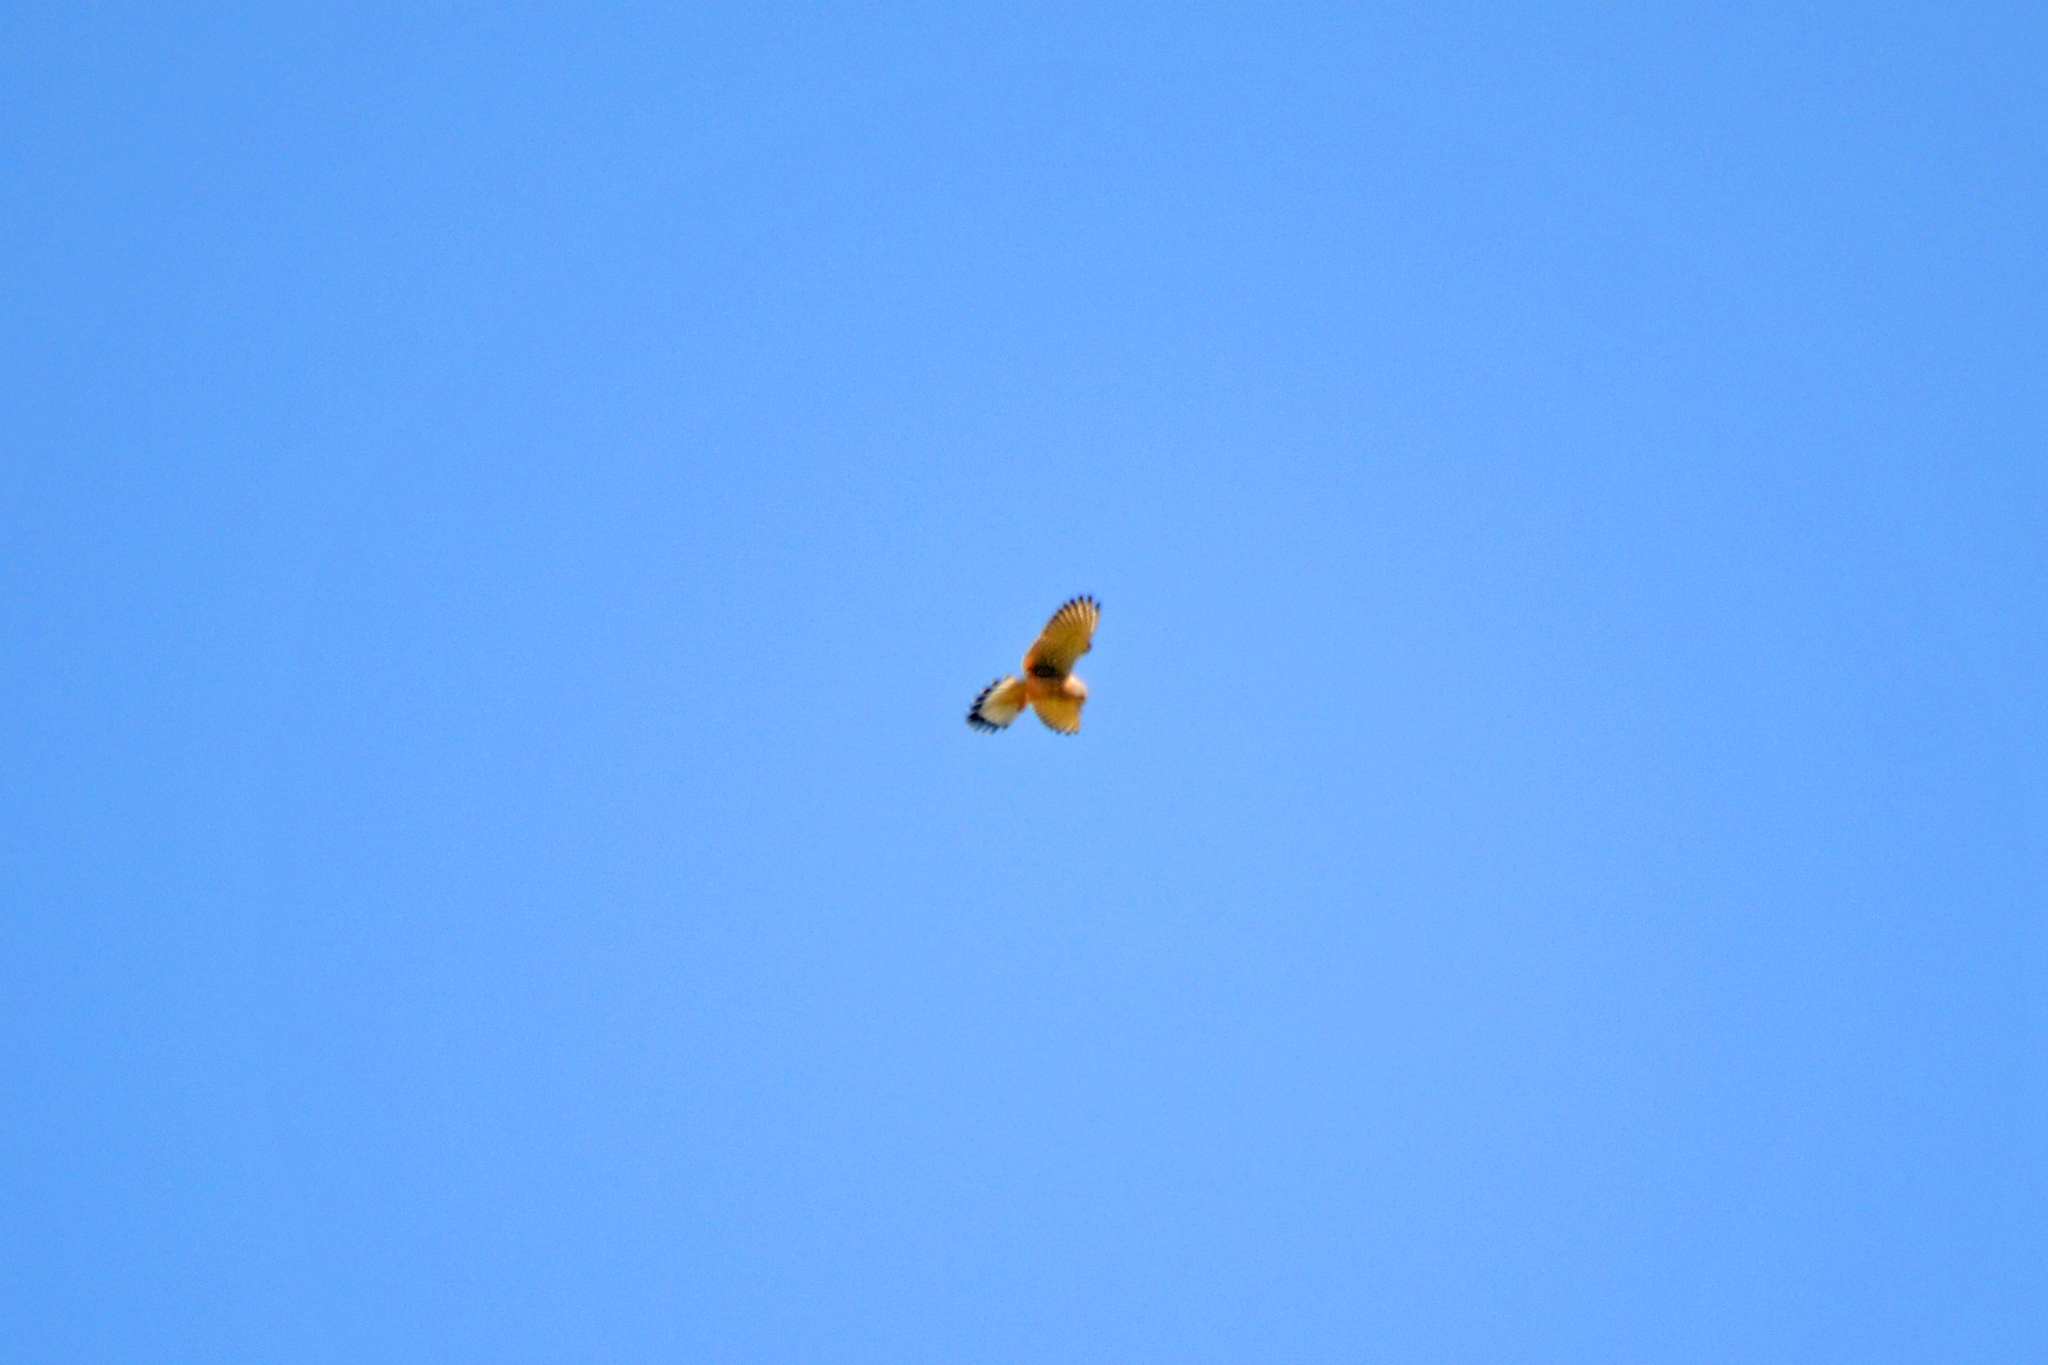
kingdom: Animalia
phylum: Chordata
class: Aves
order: Falconiformes
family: Falconidae
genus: Falco
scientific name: Falco tinnunculus
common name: Common kestrel
